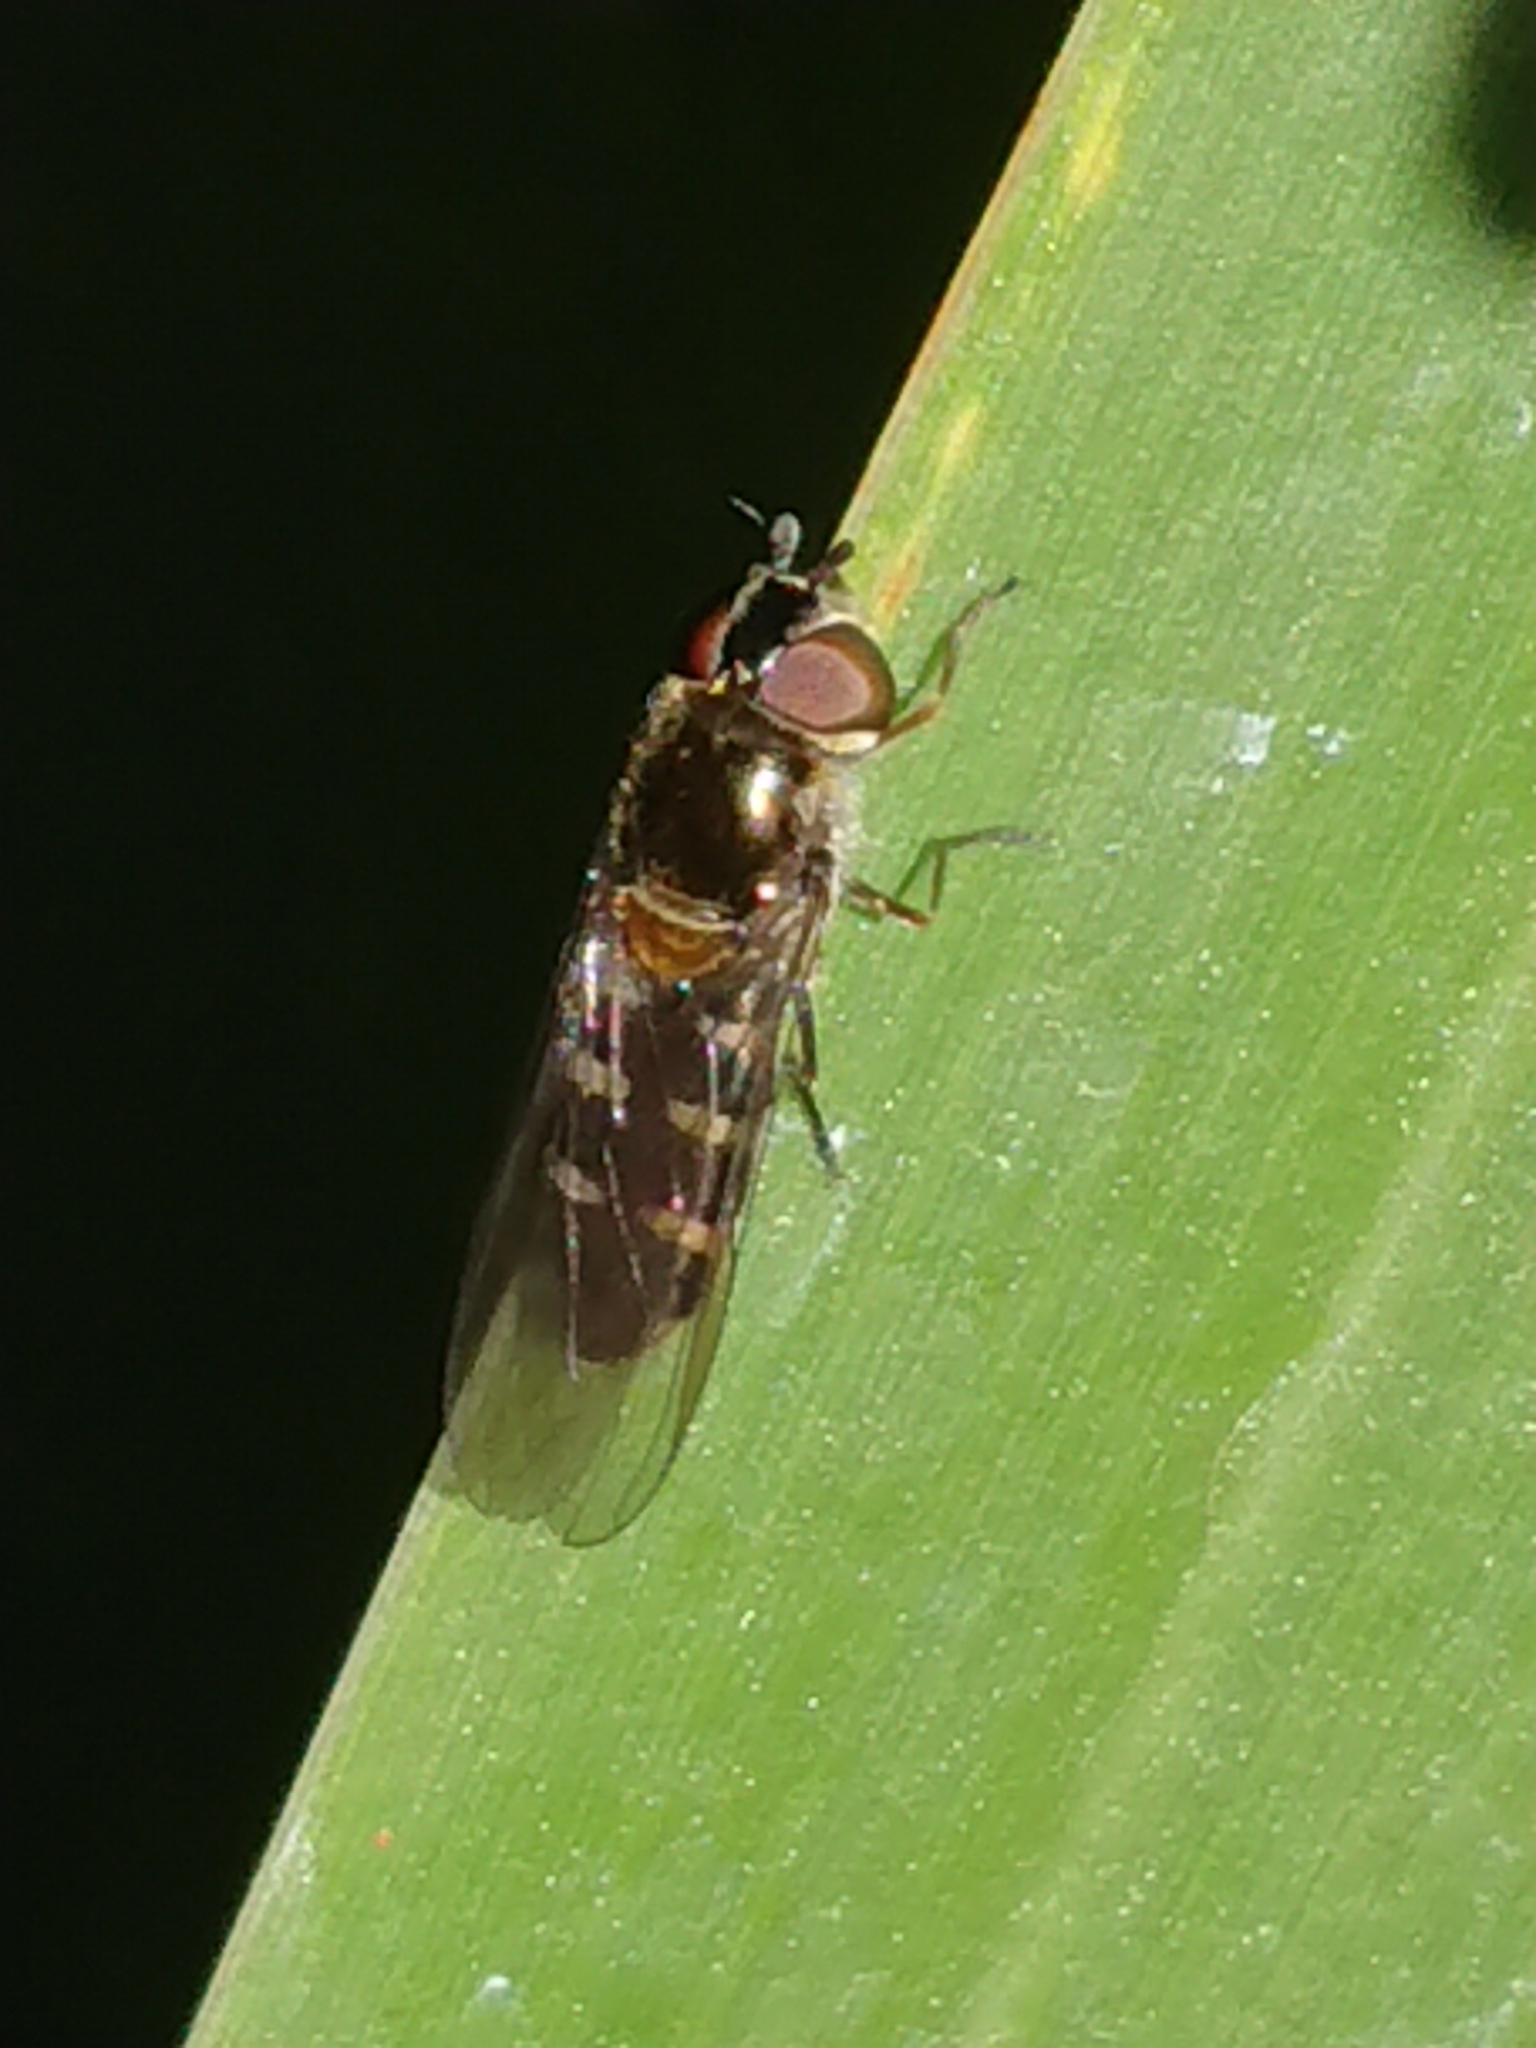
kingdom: Animalia
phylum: Arthropoda
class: Insecta
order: Diptera
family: Syrphidae
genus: Melangyna
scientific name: Melangyna novaezelandiae
